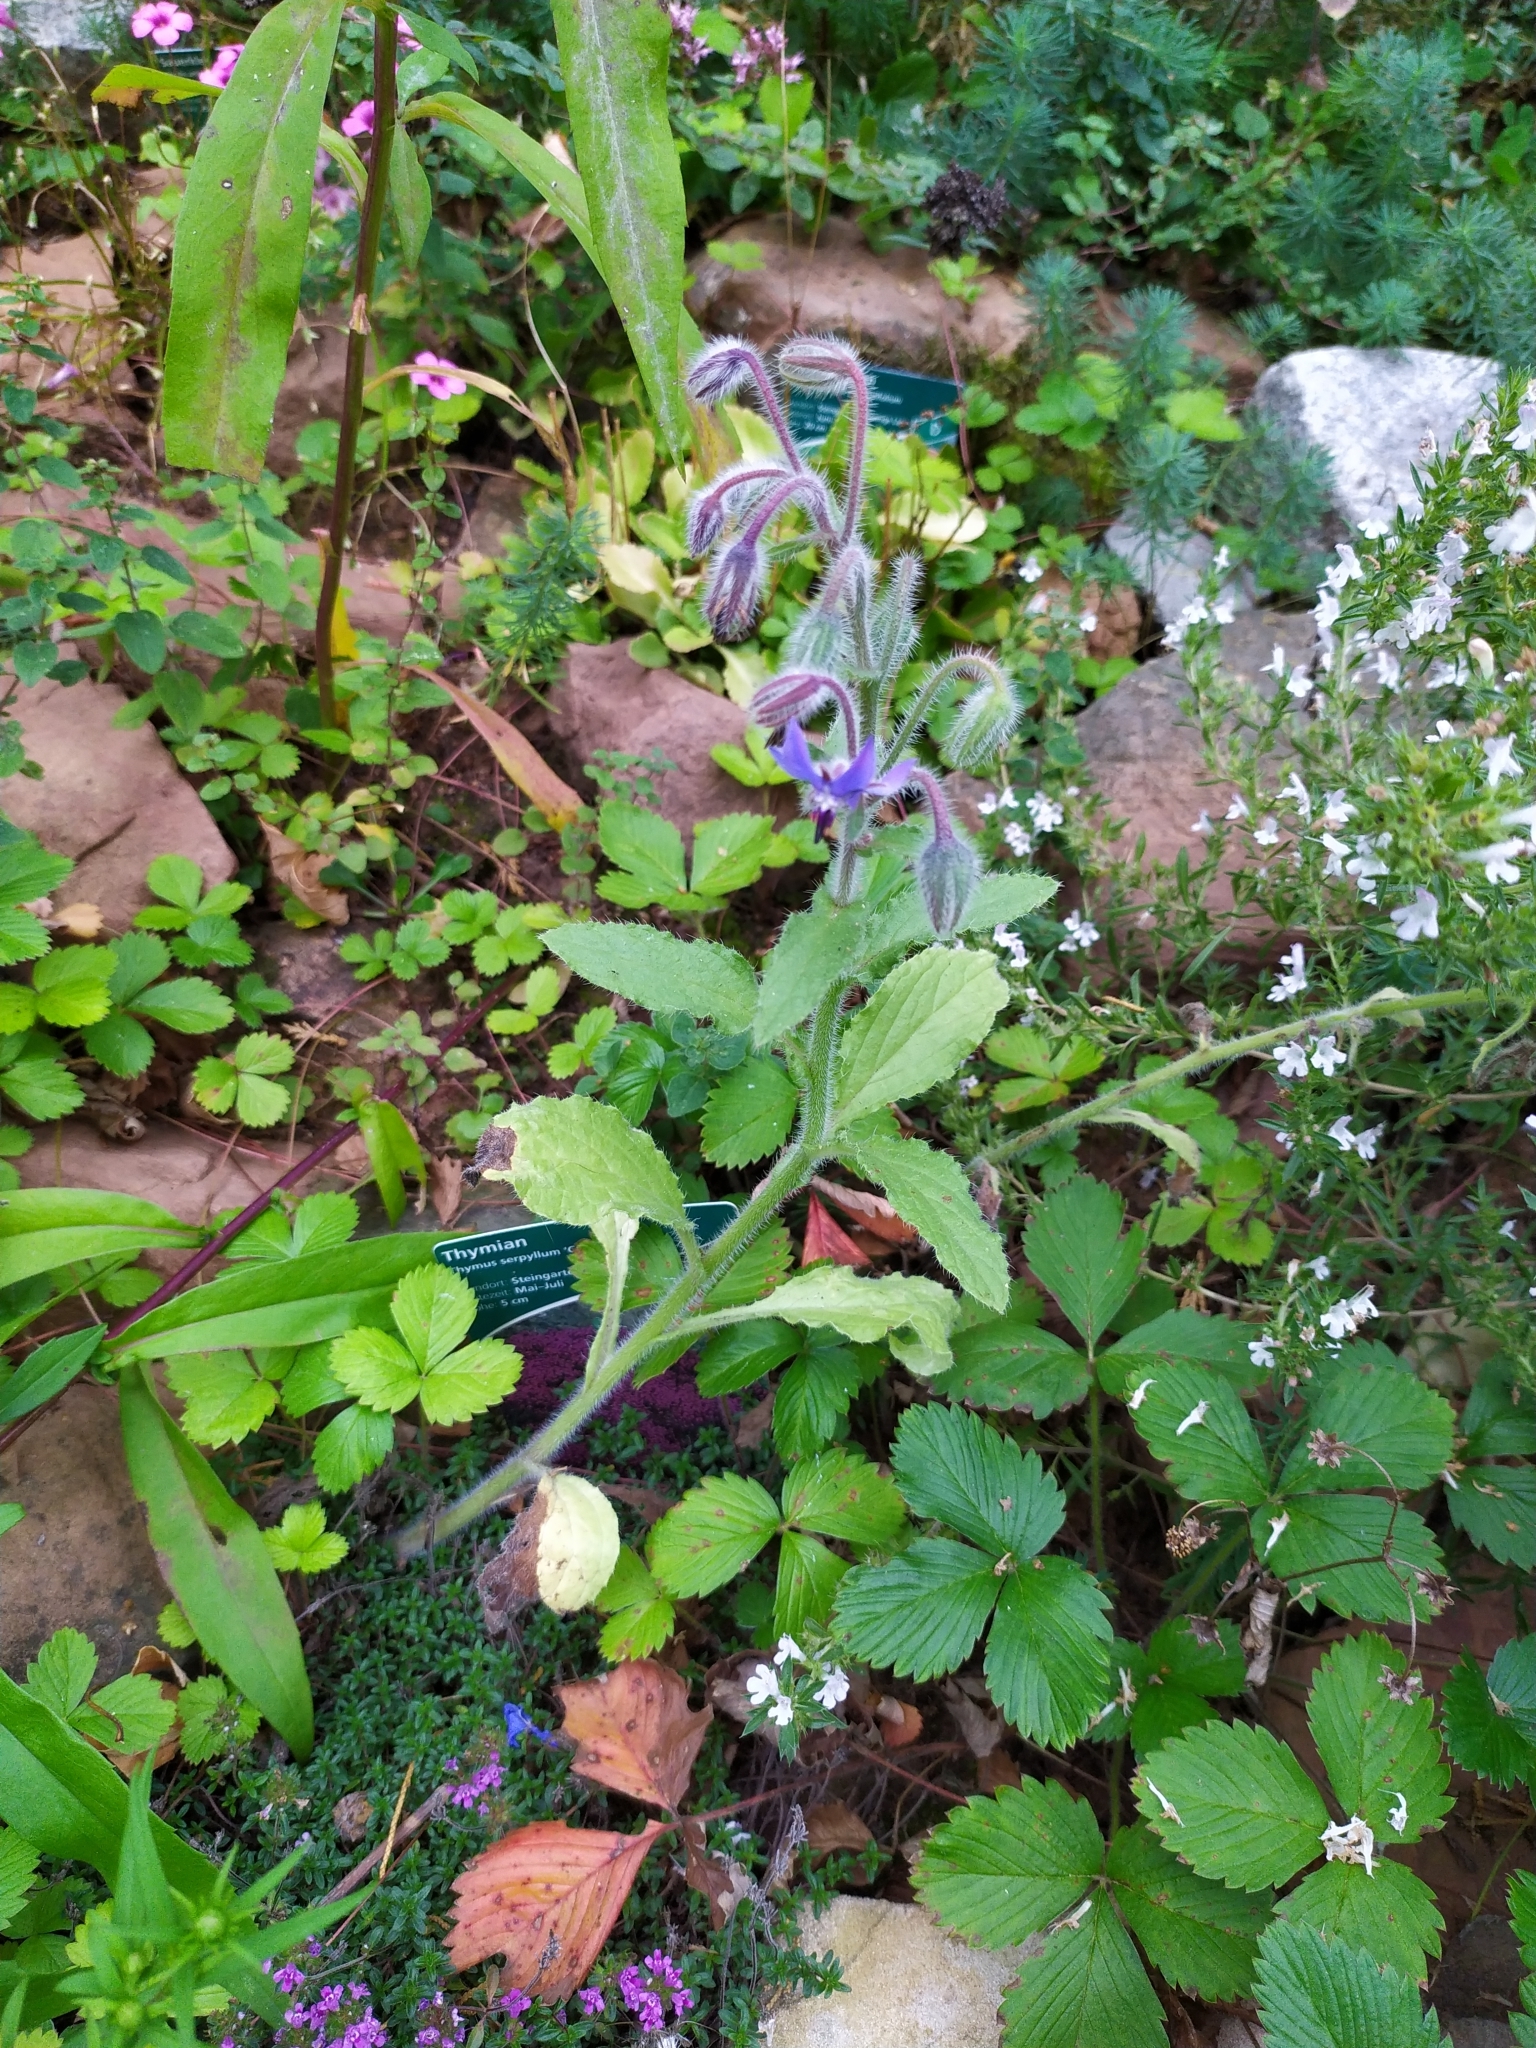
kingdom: Plantae
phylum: Tracheophyta
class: Magnoliopsida
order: Boraginales
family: Boraginaceae
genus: Borago
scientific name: Borago officinalis
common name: Borage
